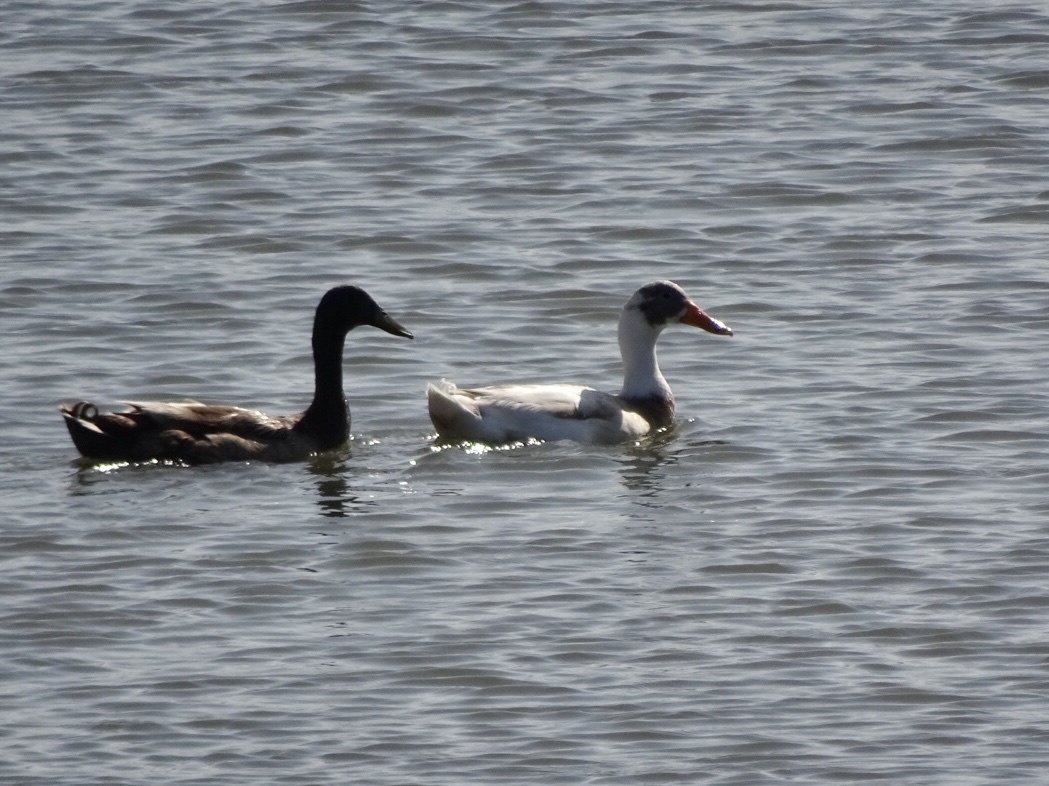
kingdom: Animalia
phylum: Chordata
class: Aves
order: Anseriformes
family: Anatidae
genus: Anas
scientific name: Anas platyrhynchos
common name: Mallard
